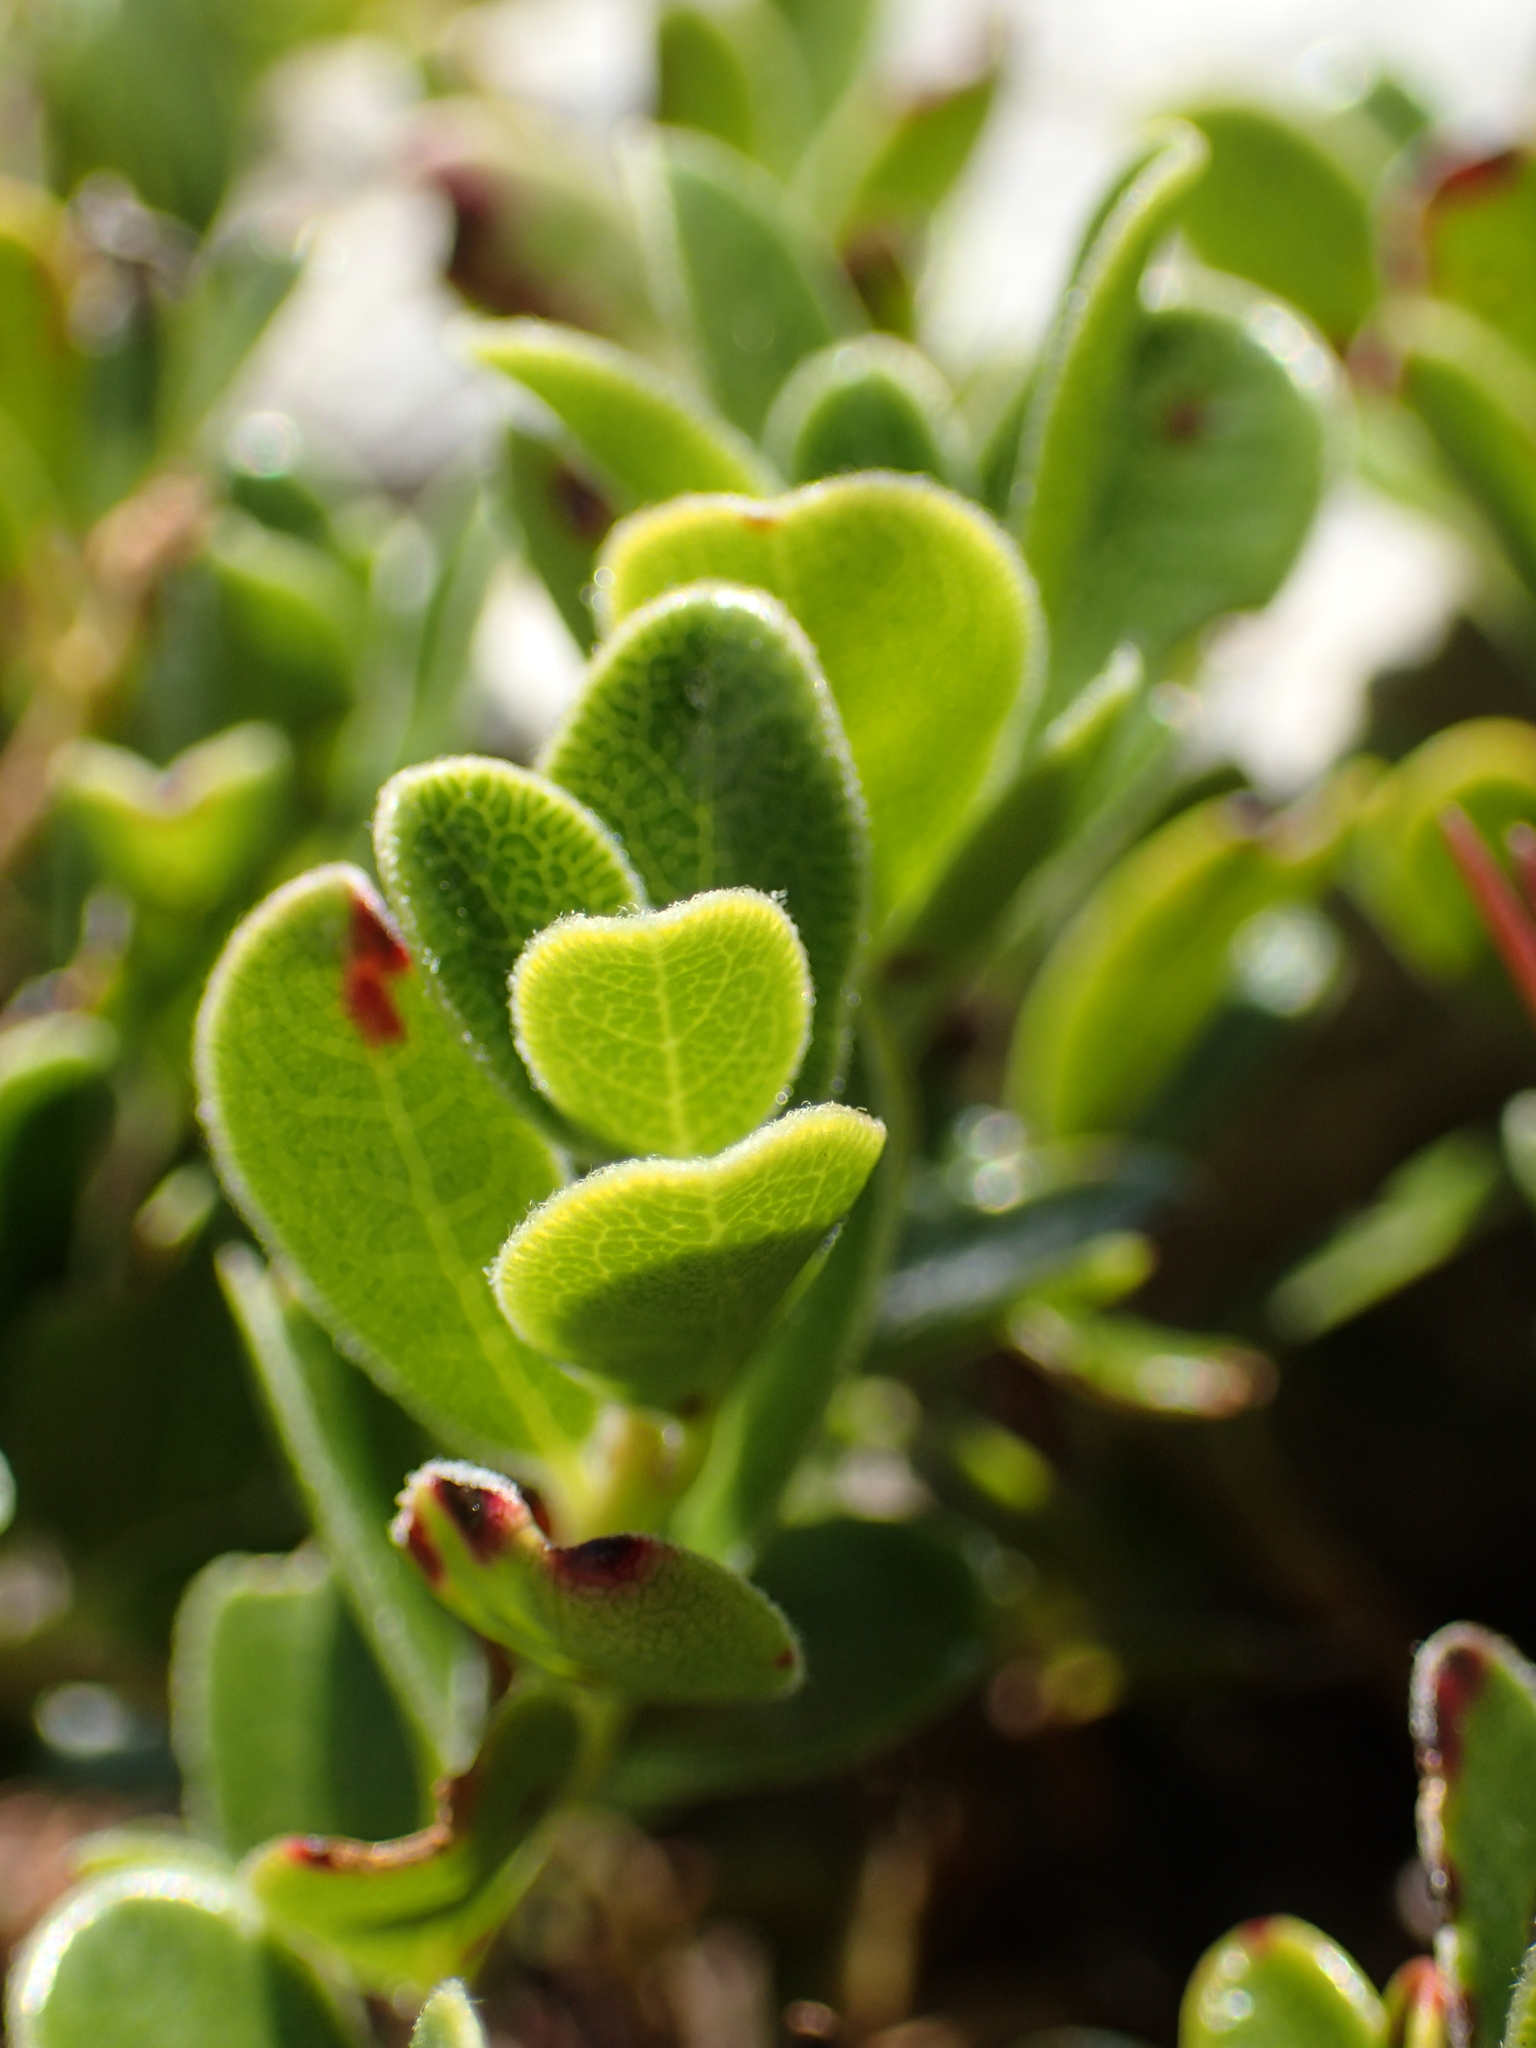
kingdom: Plantae
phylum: Tracheophyta
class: Magnoliopsida
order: Ericales
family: Ericaceae
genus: Arctostaphylos
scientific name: Arctostaphylos uva-ursi
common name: Bearberry
